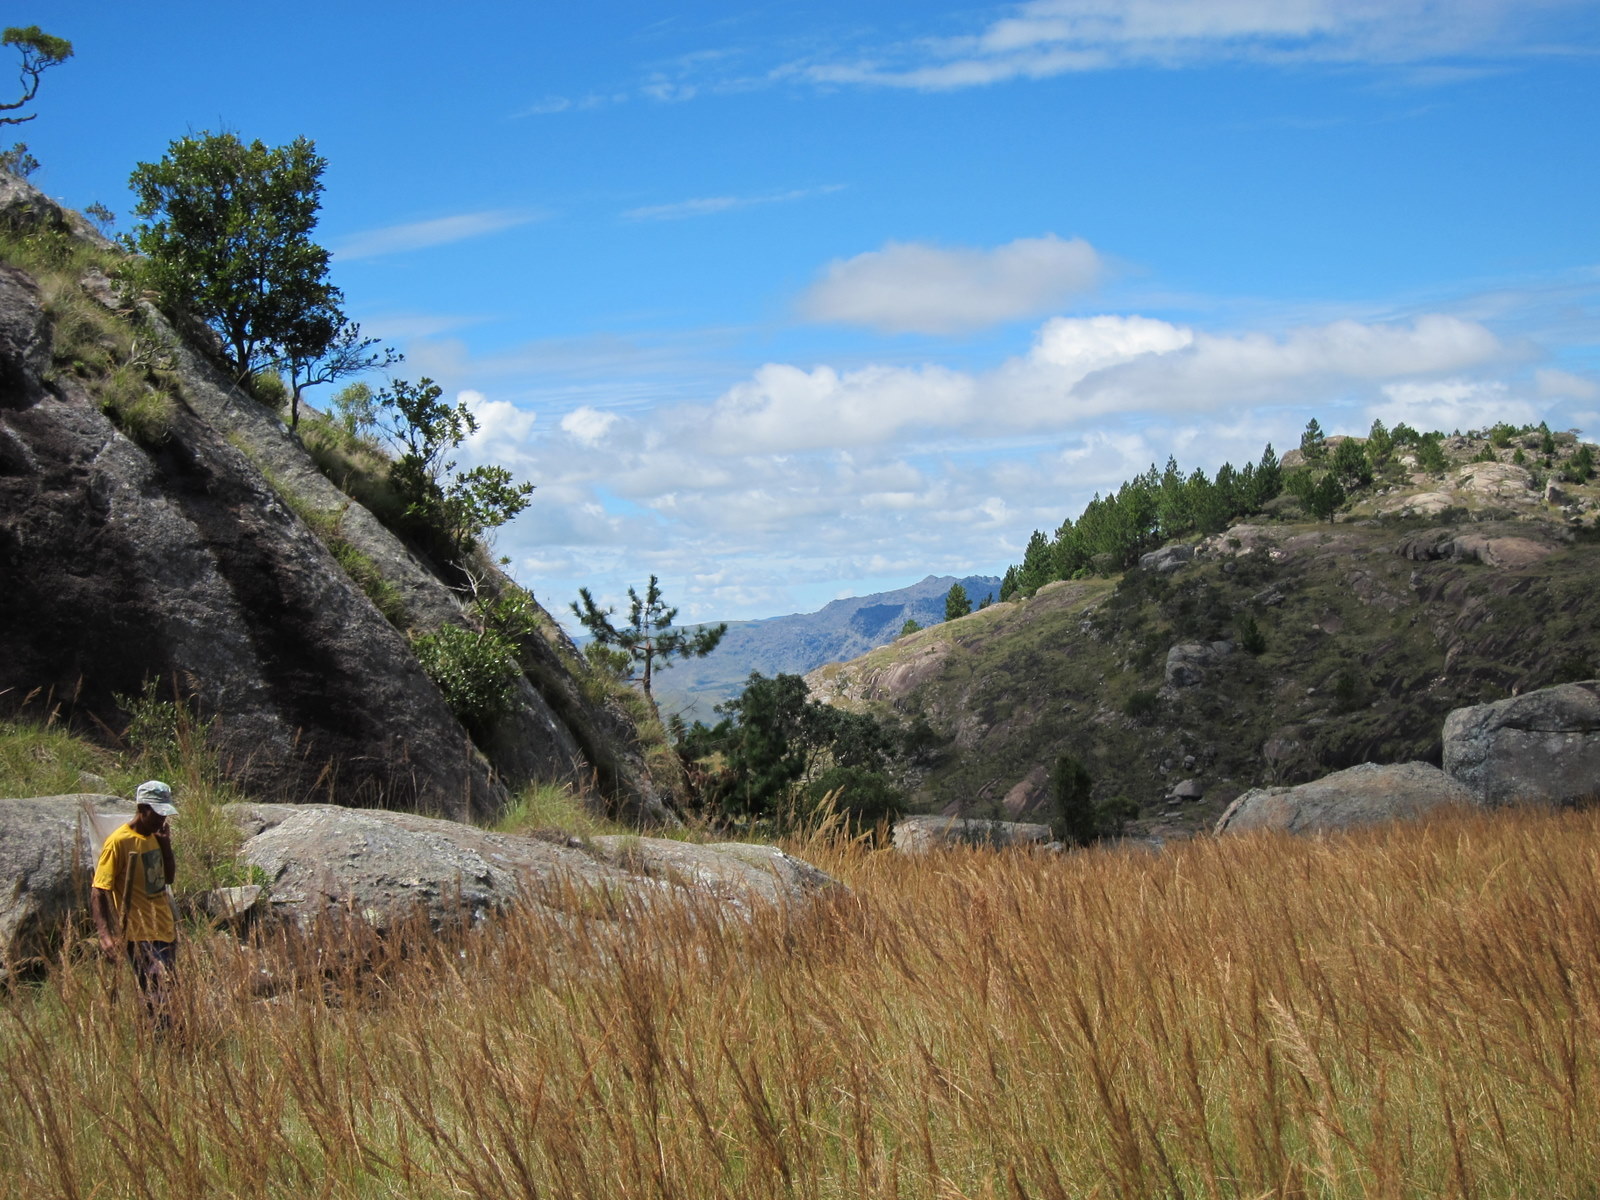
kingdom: Plantae
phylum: Tracheophyta
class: Liliopsida
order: Poales
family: Poaceae
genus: Loudetia
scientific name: Loudetia simplex
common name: Common russet grass
